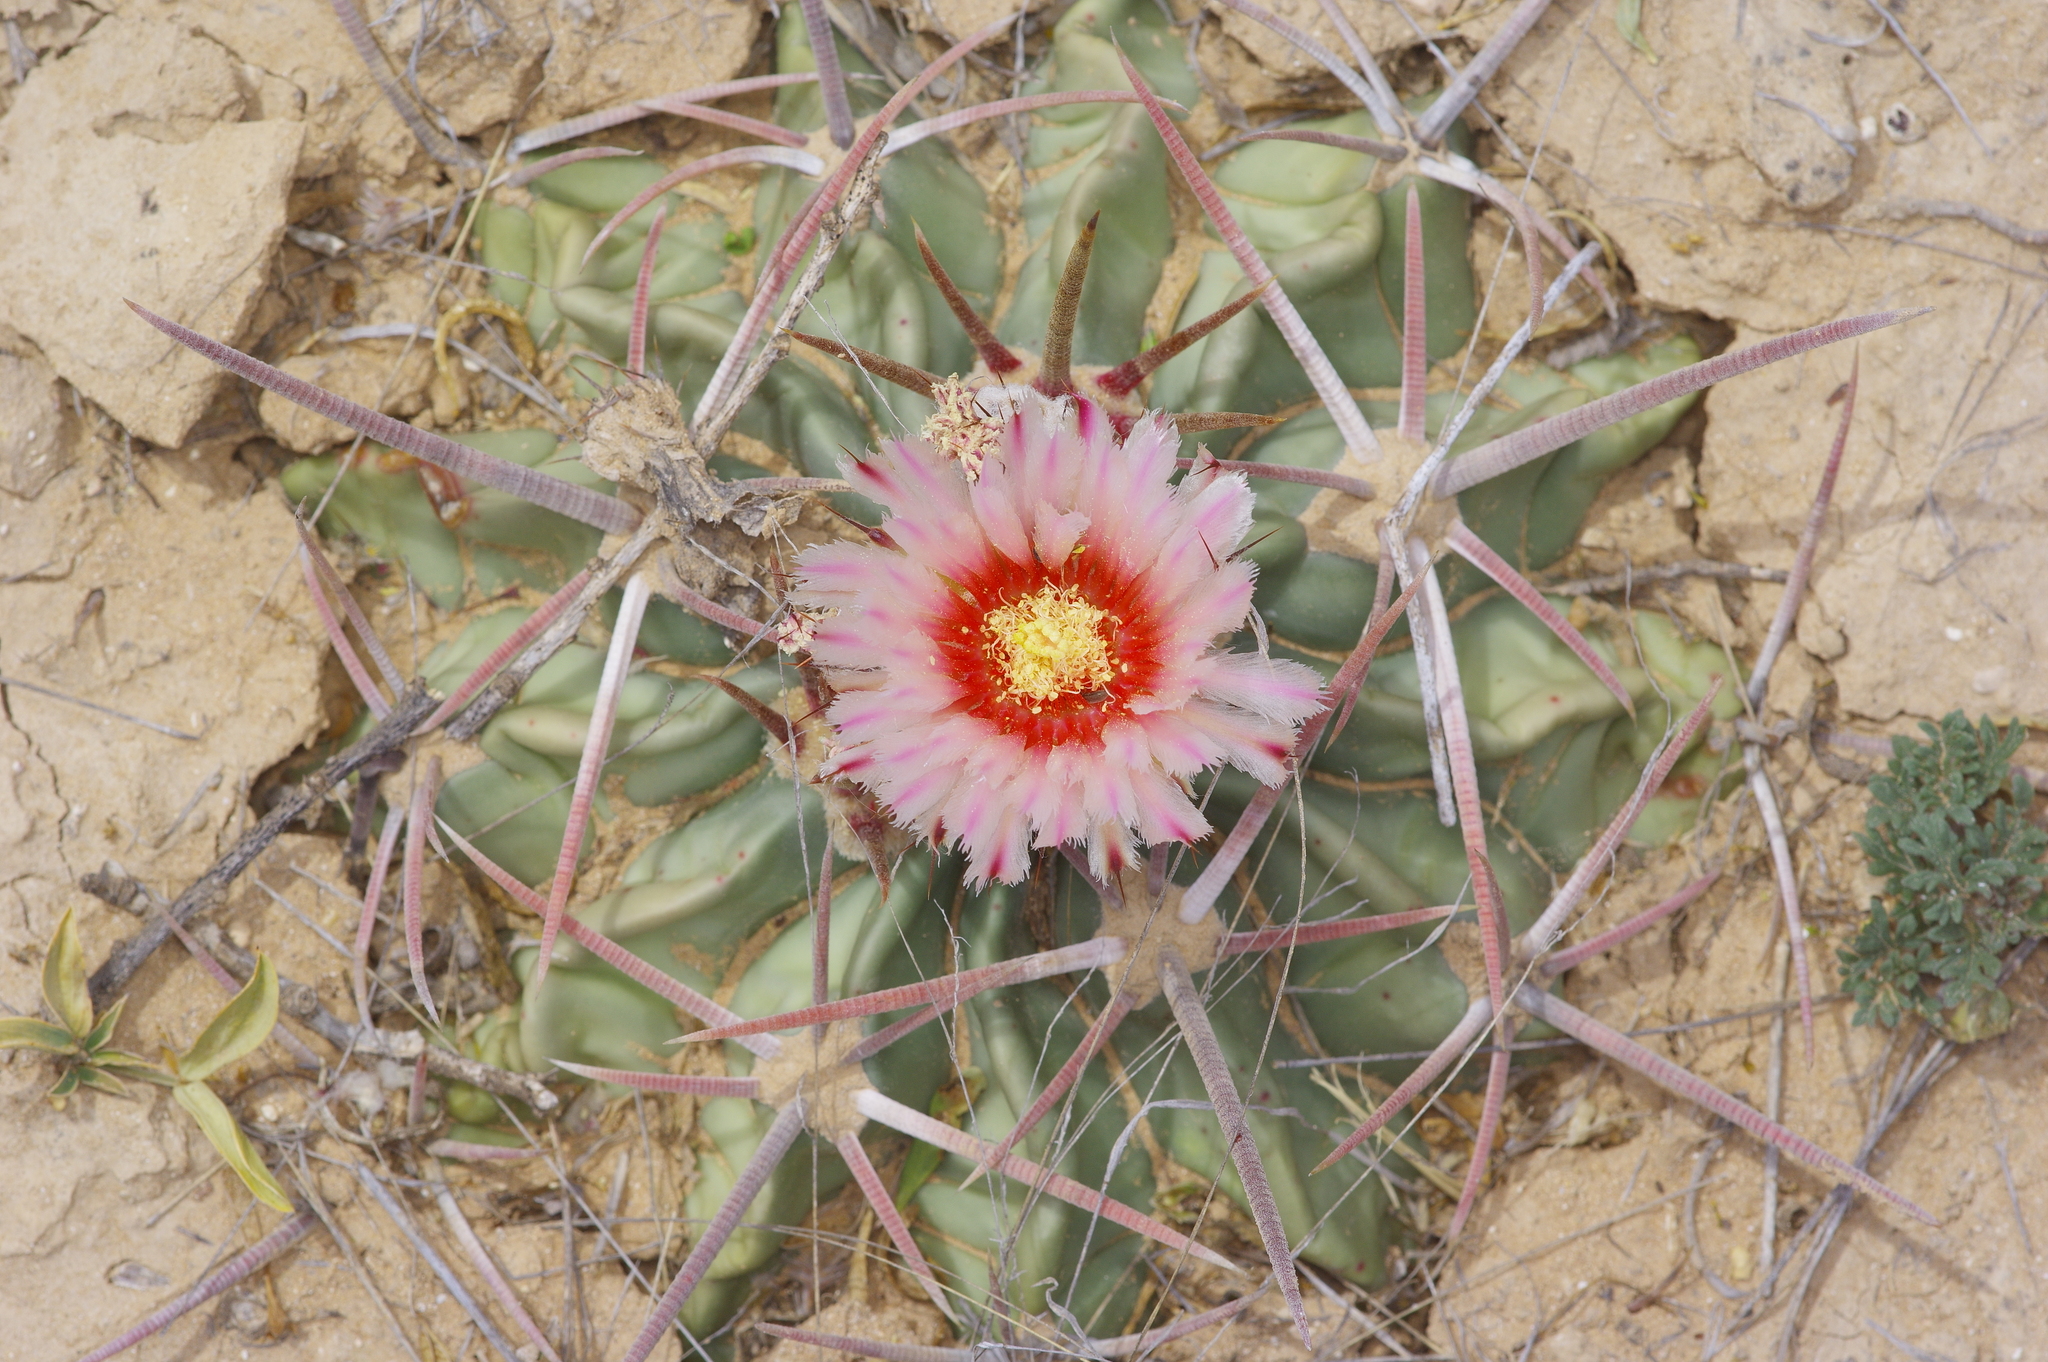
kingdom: Plantae
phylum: Tracheophyta
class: Magnoliopsida
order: Caryophyllales
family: Cactaceae
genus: Echinocactus
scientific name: Echinocactus texensis
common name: Devil's pincushion
